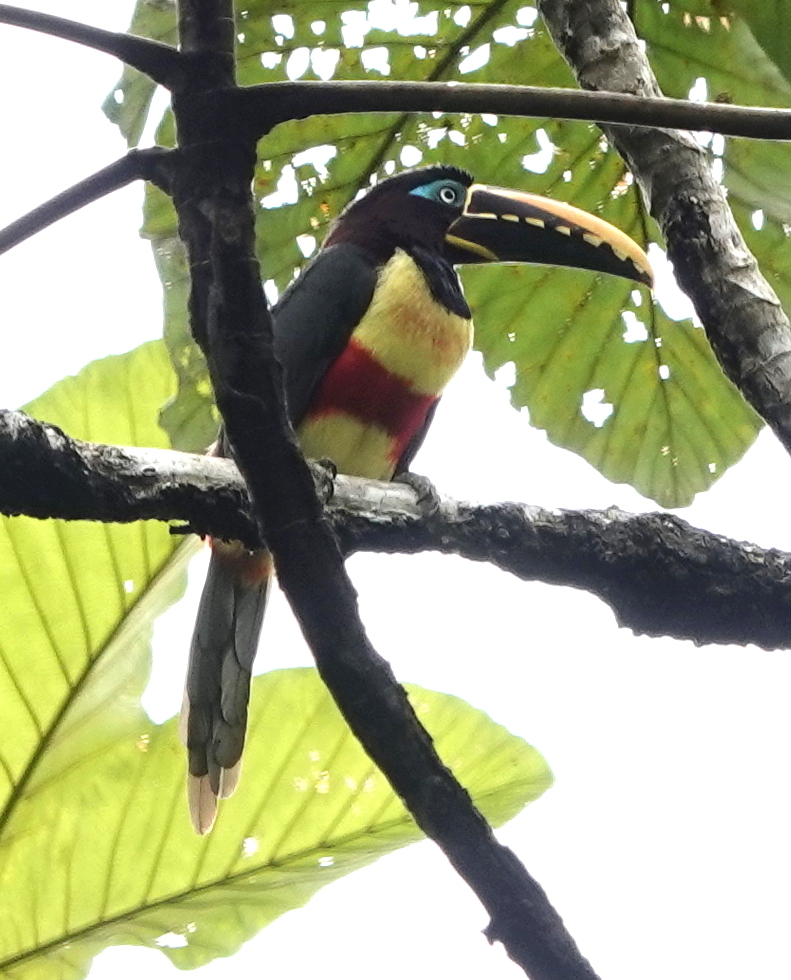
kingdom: Animalia
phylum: Chordata
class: Aves
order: Piciformes
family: Ramphastidae
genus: Pteroglossus
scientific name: Pteroglossus castanotis
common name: Chestnut-eared aracari
